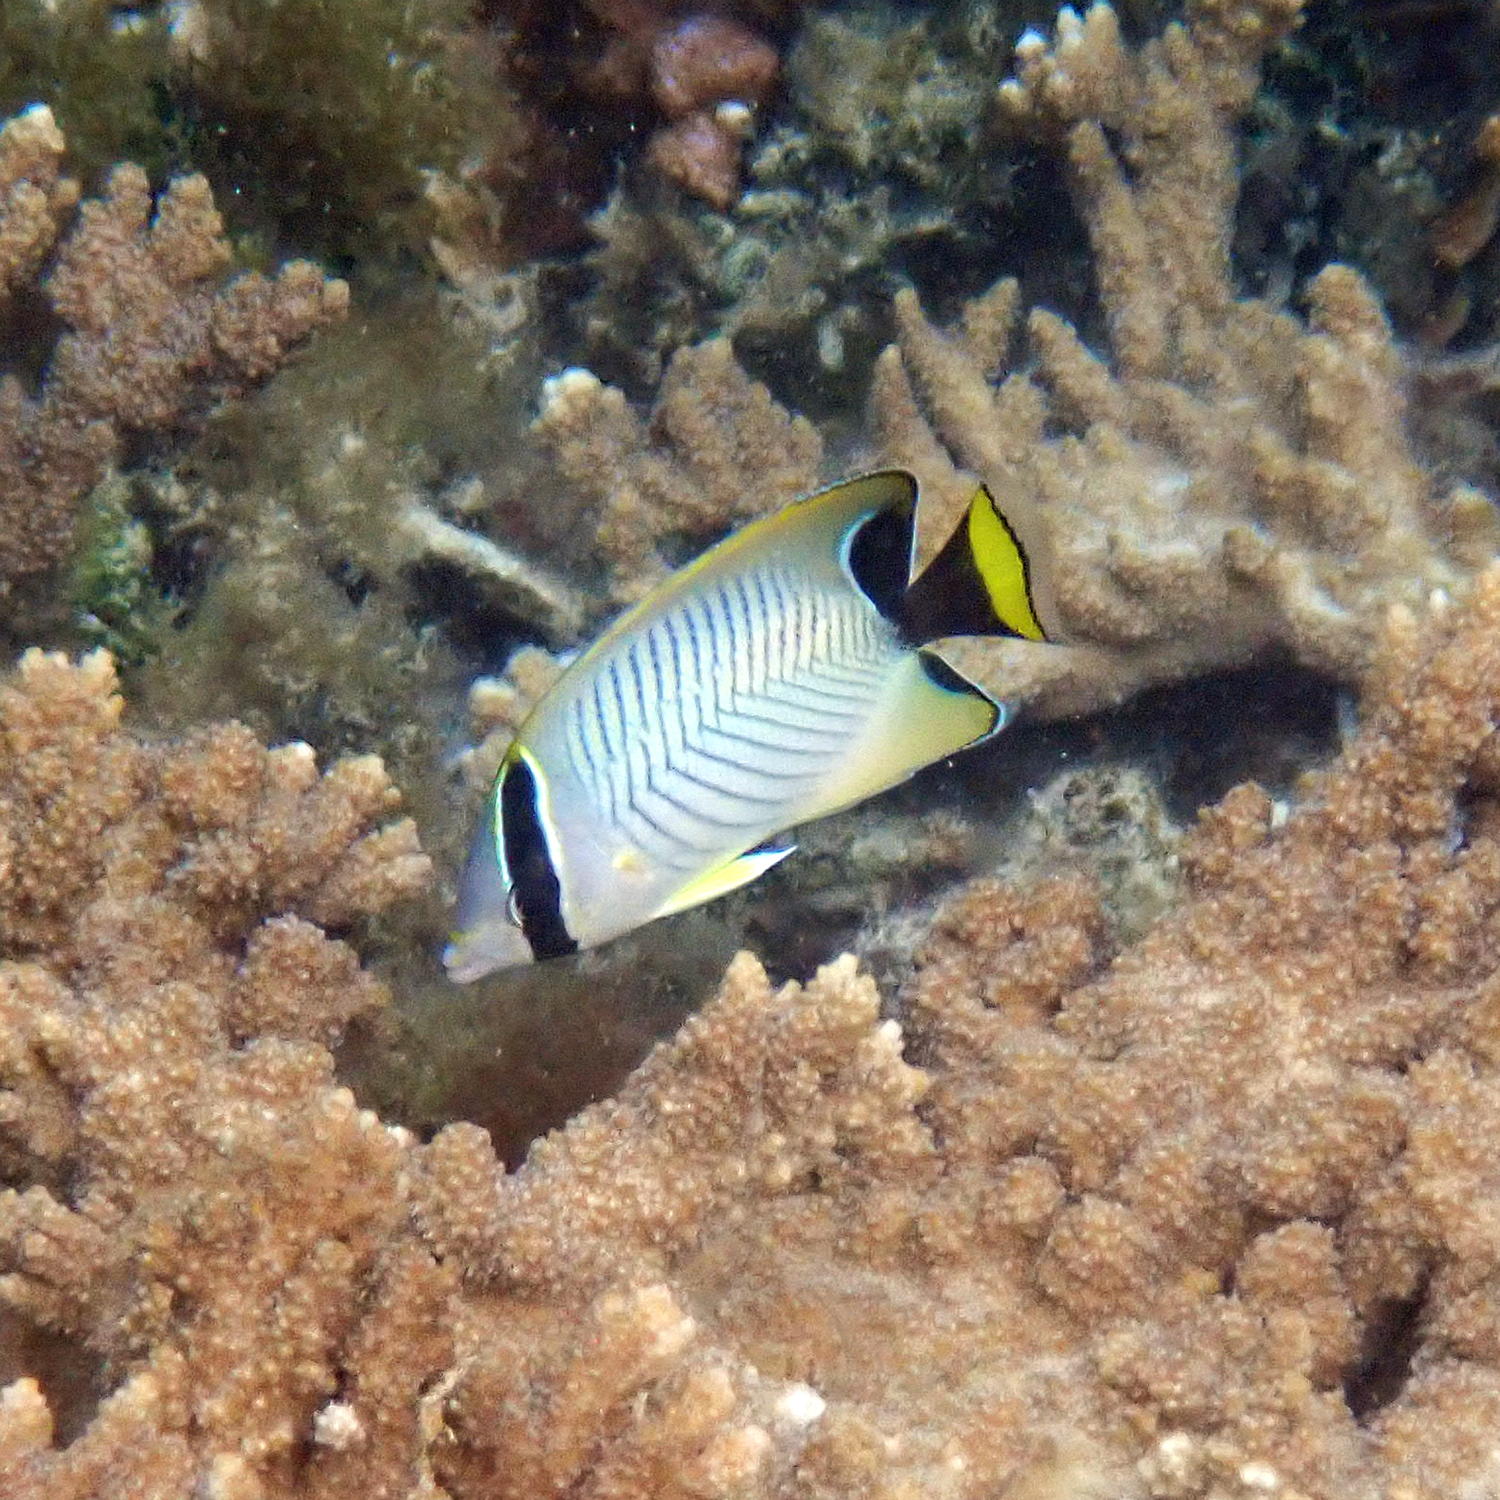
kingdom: Animalia
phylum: Chordata
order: Perciformes
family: Chaetodontidae
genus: Chaetodon
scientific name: Chaetodon trifascialis
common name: Chevroned butterflyfish
